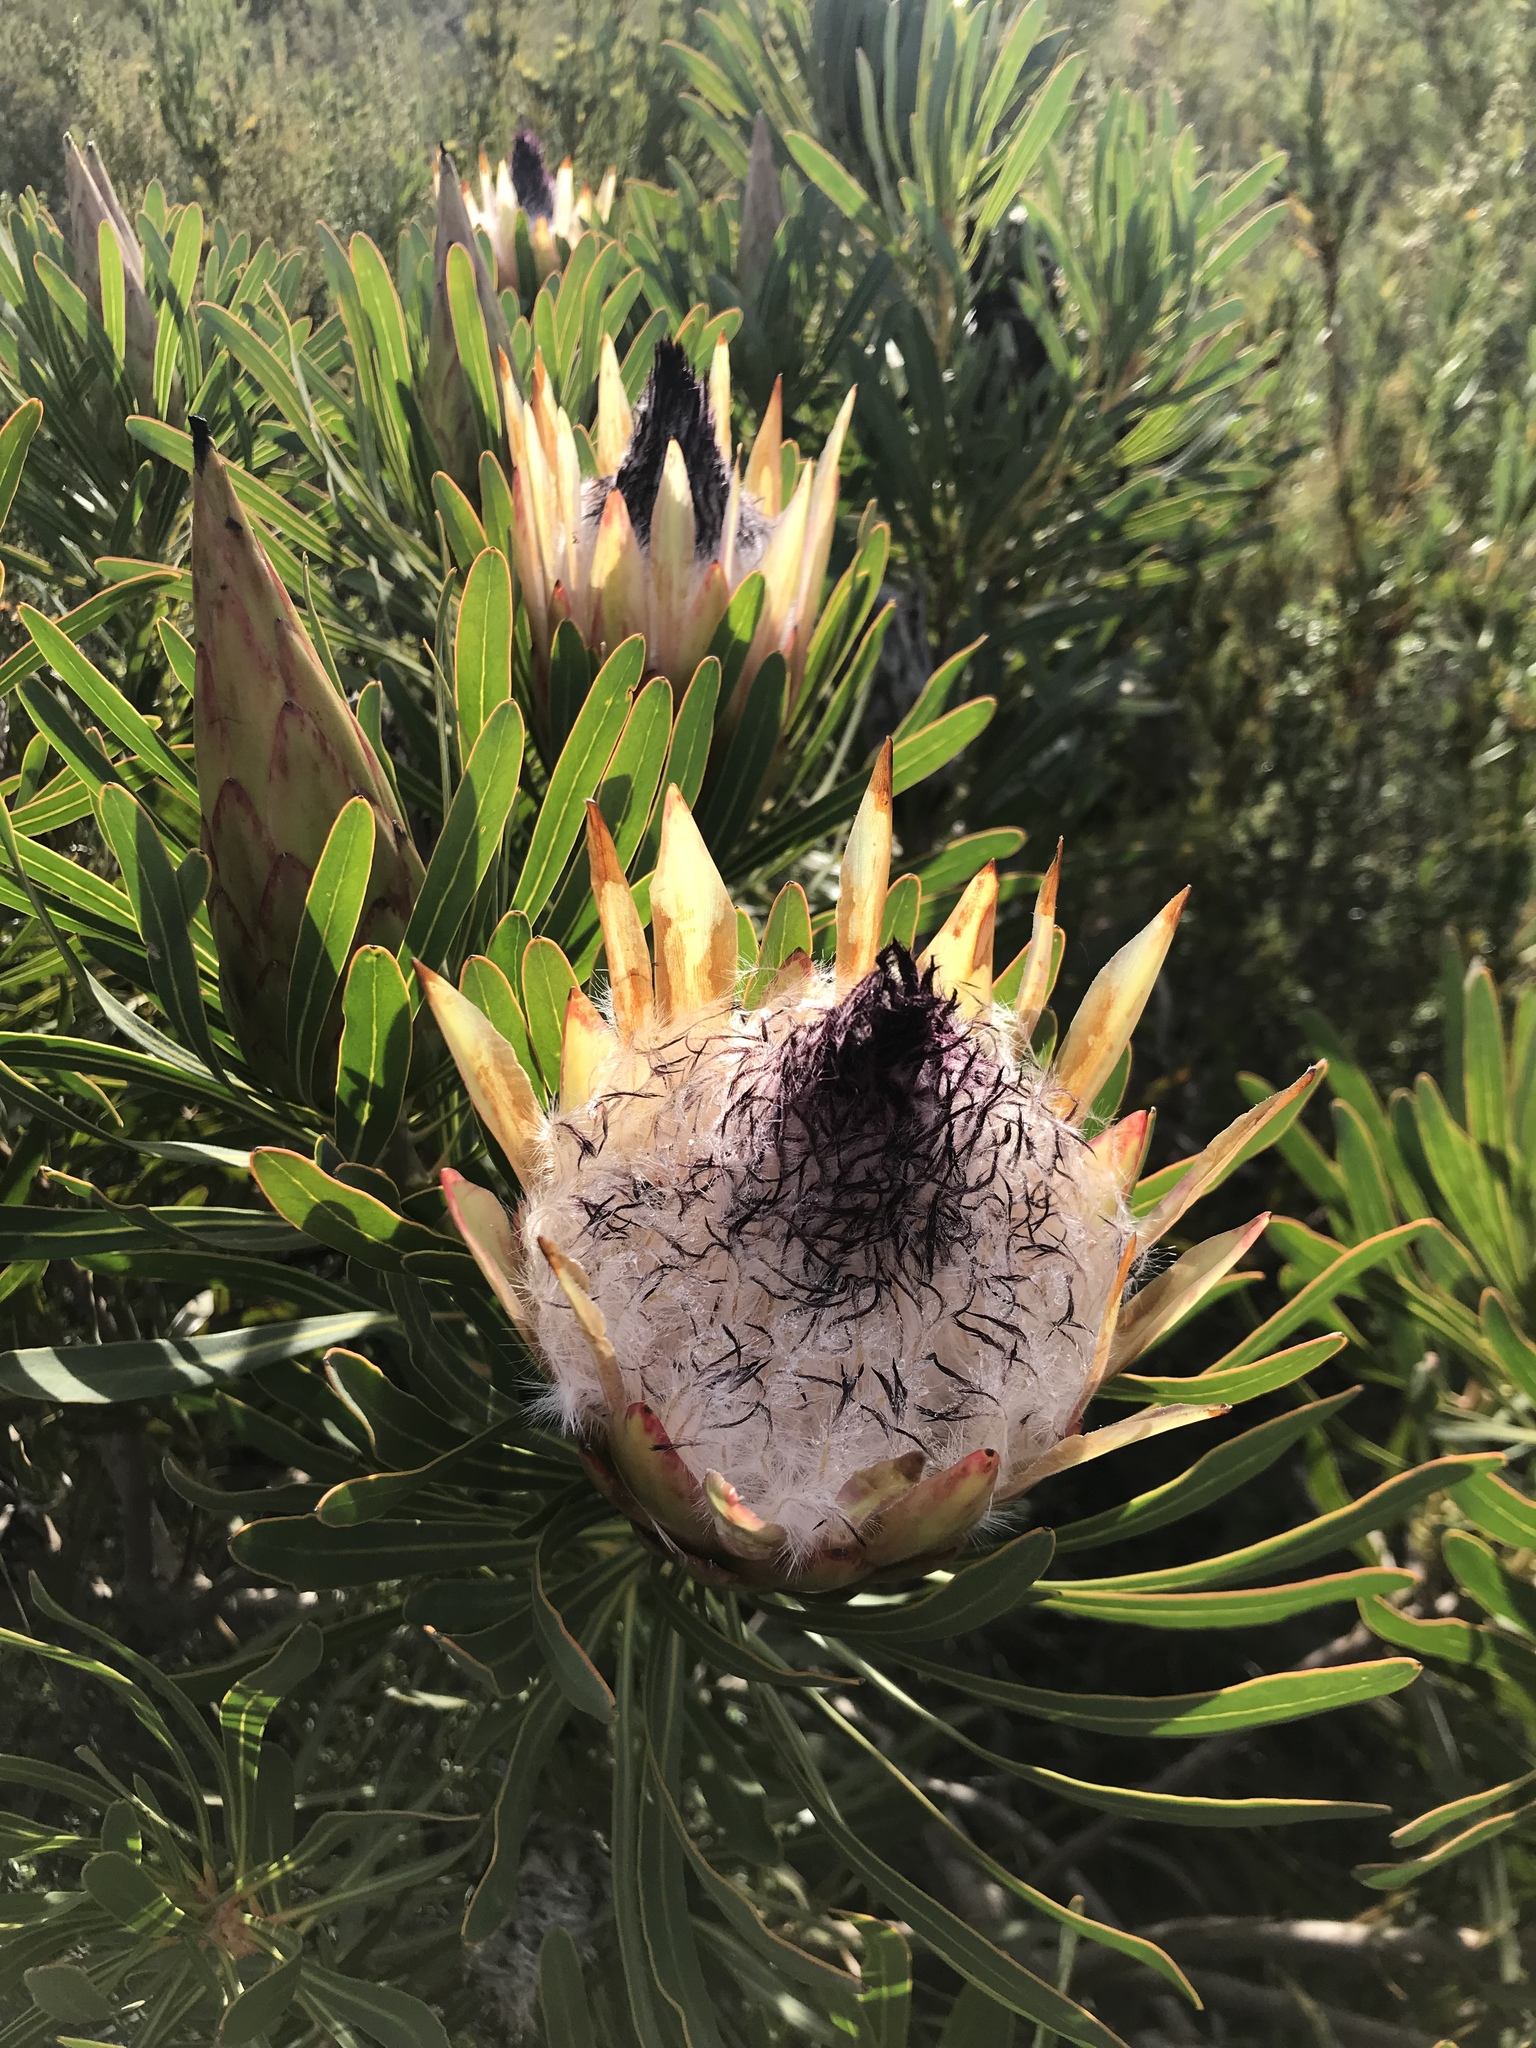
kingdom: Plantae
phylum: Tracheophyta
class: Magnoliopsida
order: Proteales
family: Proteaceae
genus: Protea
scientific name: Protea longifolia
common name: Long-leaf sugarbush
